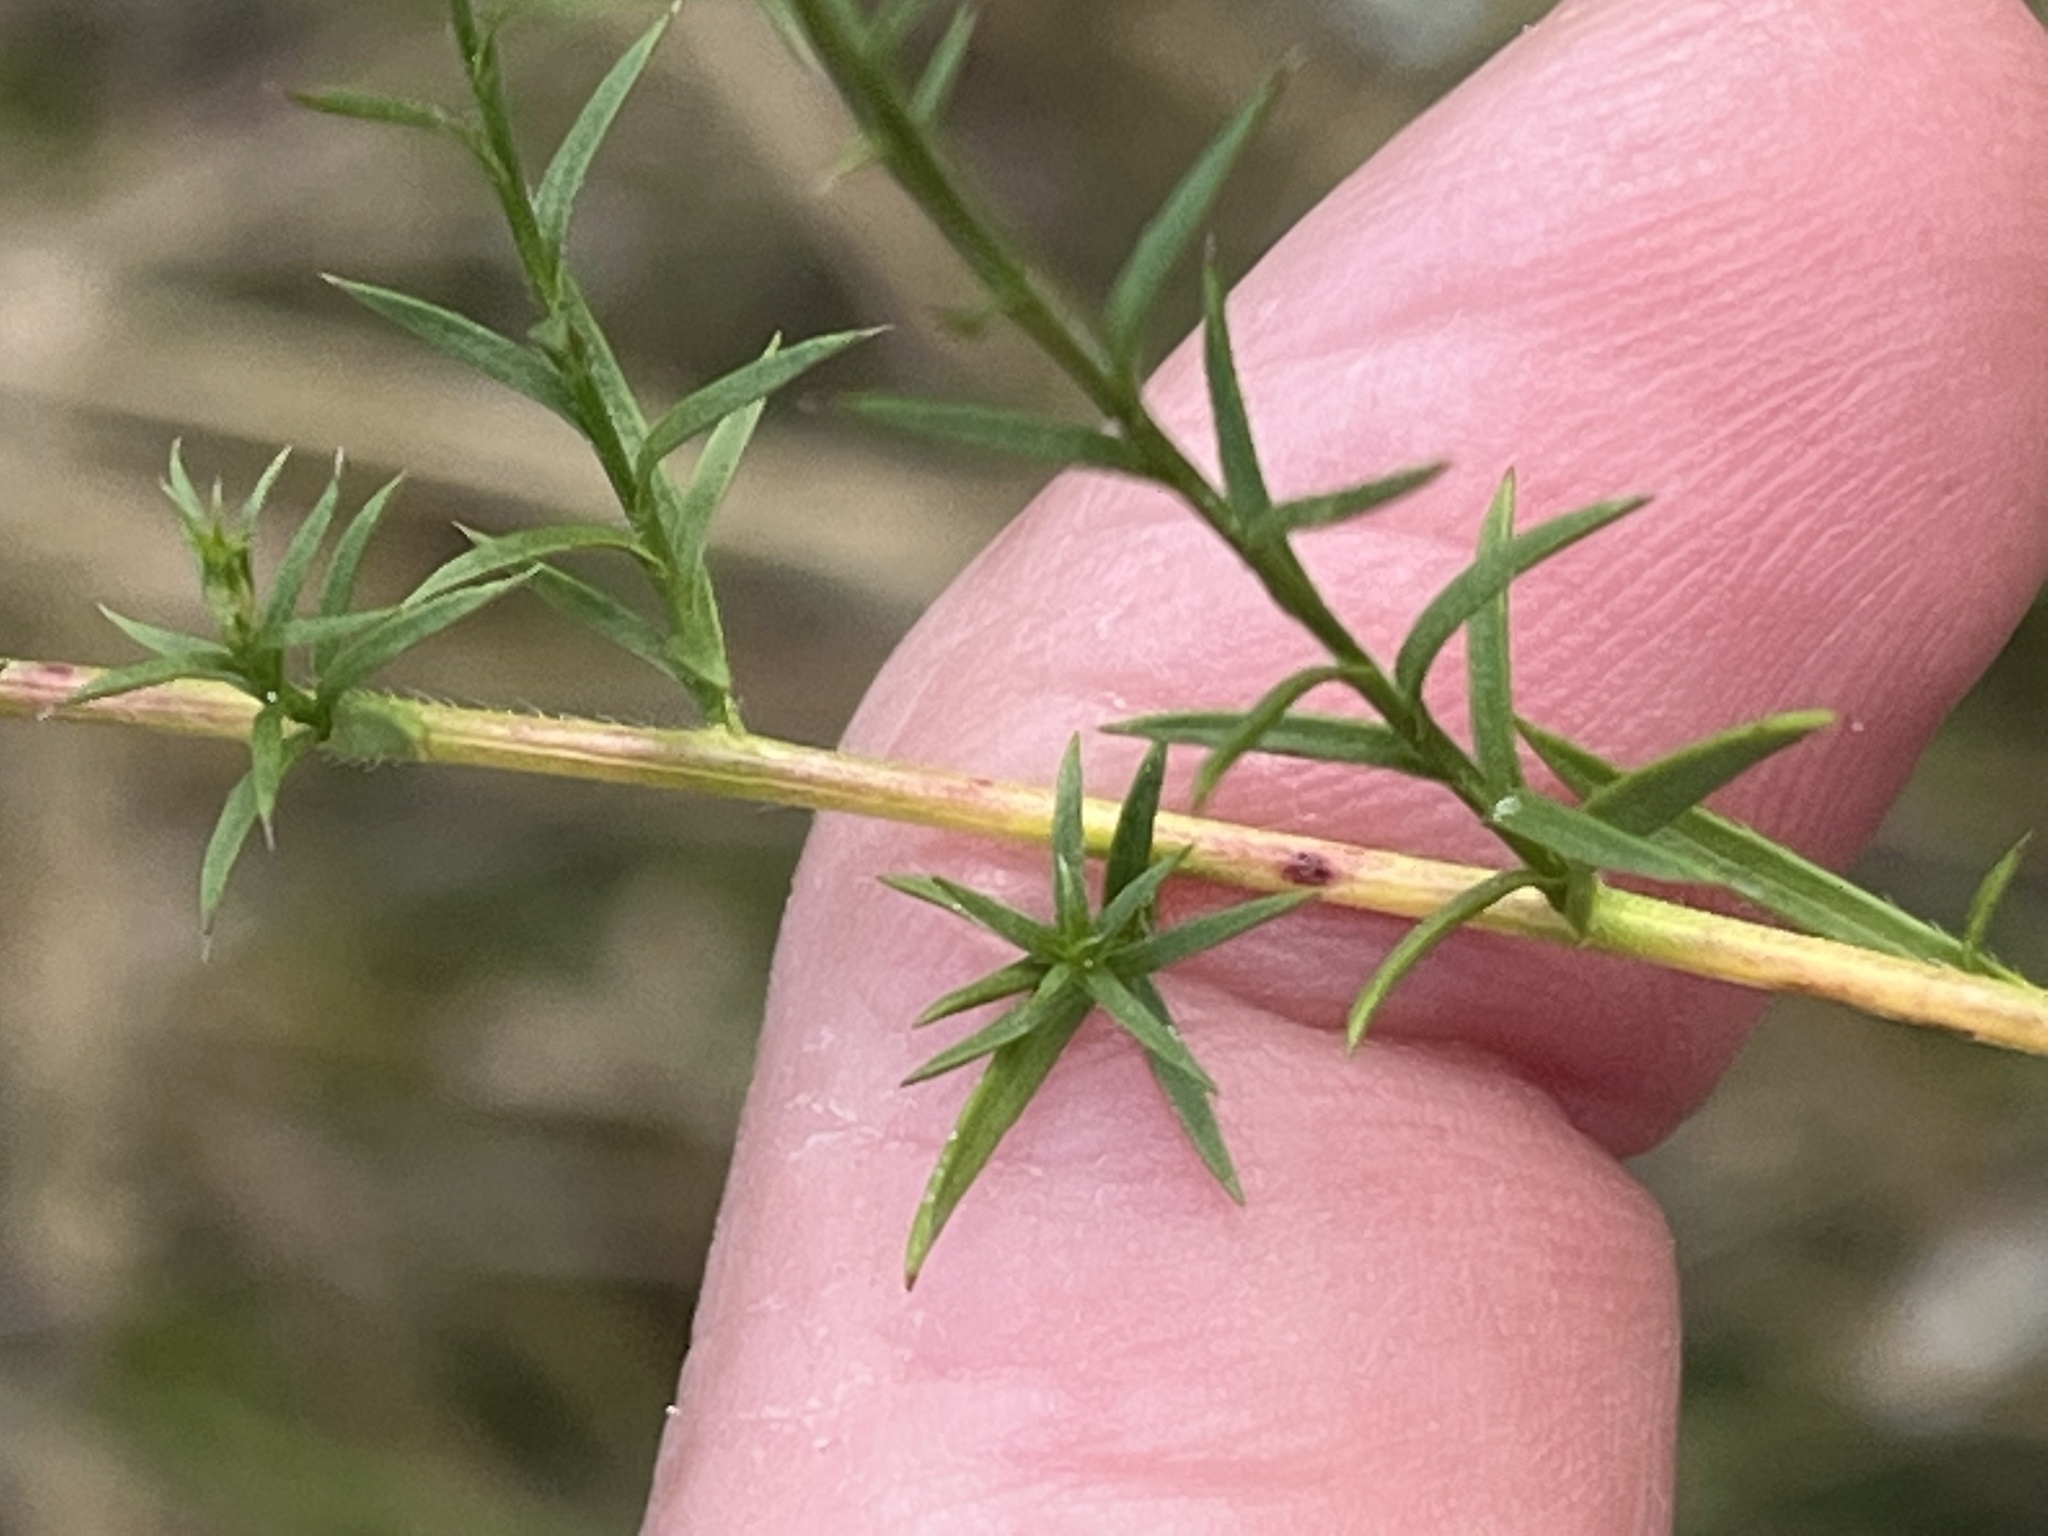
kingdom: Plantae
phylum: Tracheophyta
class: Magnoliopsida
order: Asterales
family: Asteraceae
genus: Symphyotrichum
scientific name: Symphyotrichum pilosum
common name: Awl aster
